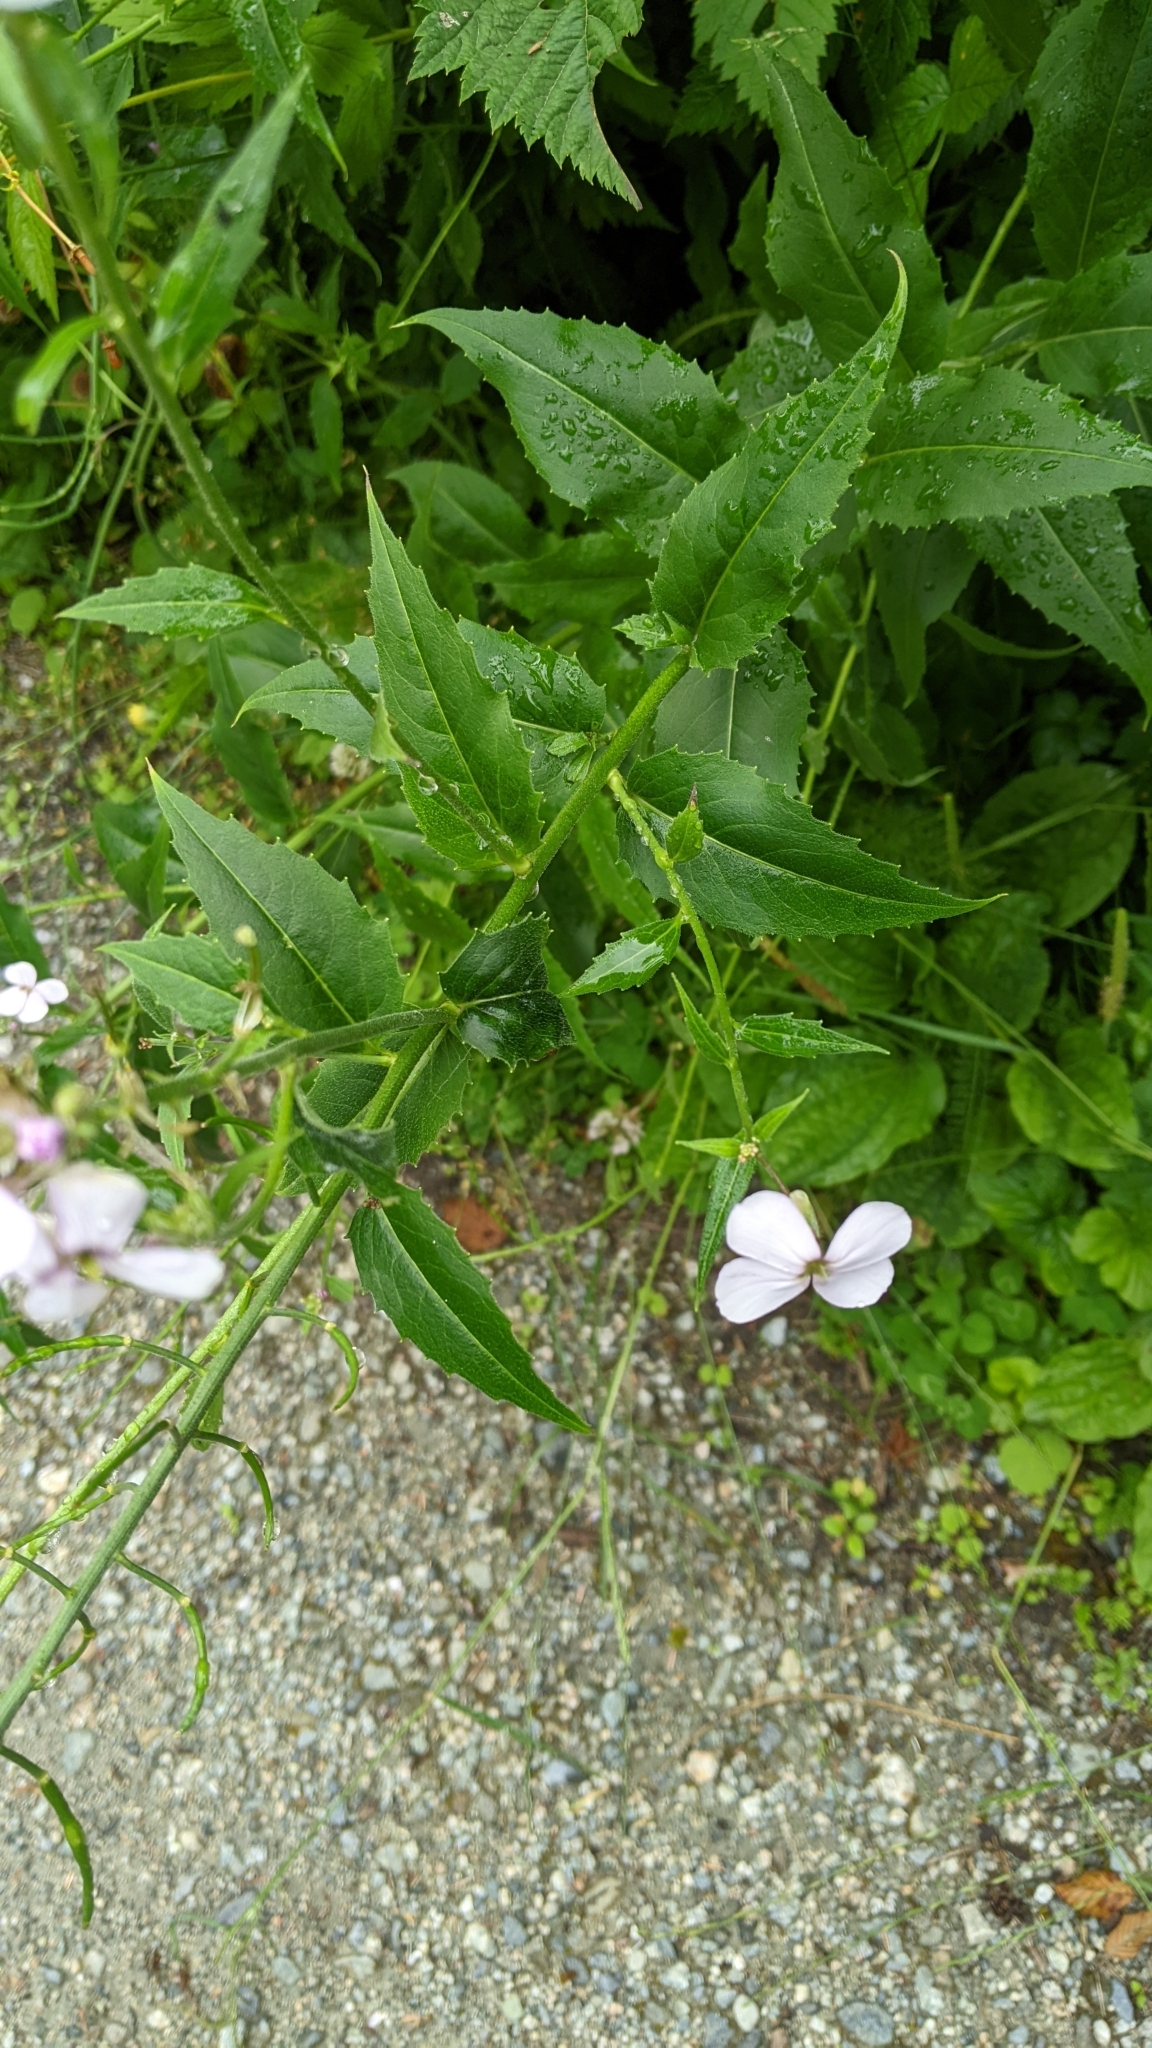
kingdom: Plantae
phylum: Tracheophyta
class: Magnoliopsida
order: Brassicales
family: Brassicaceae
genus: Hesperis
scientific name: Hesperis matronalis
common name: Dame's-violet
